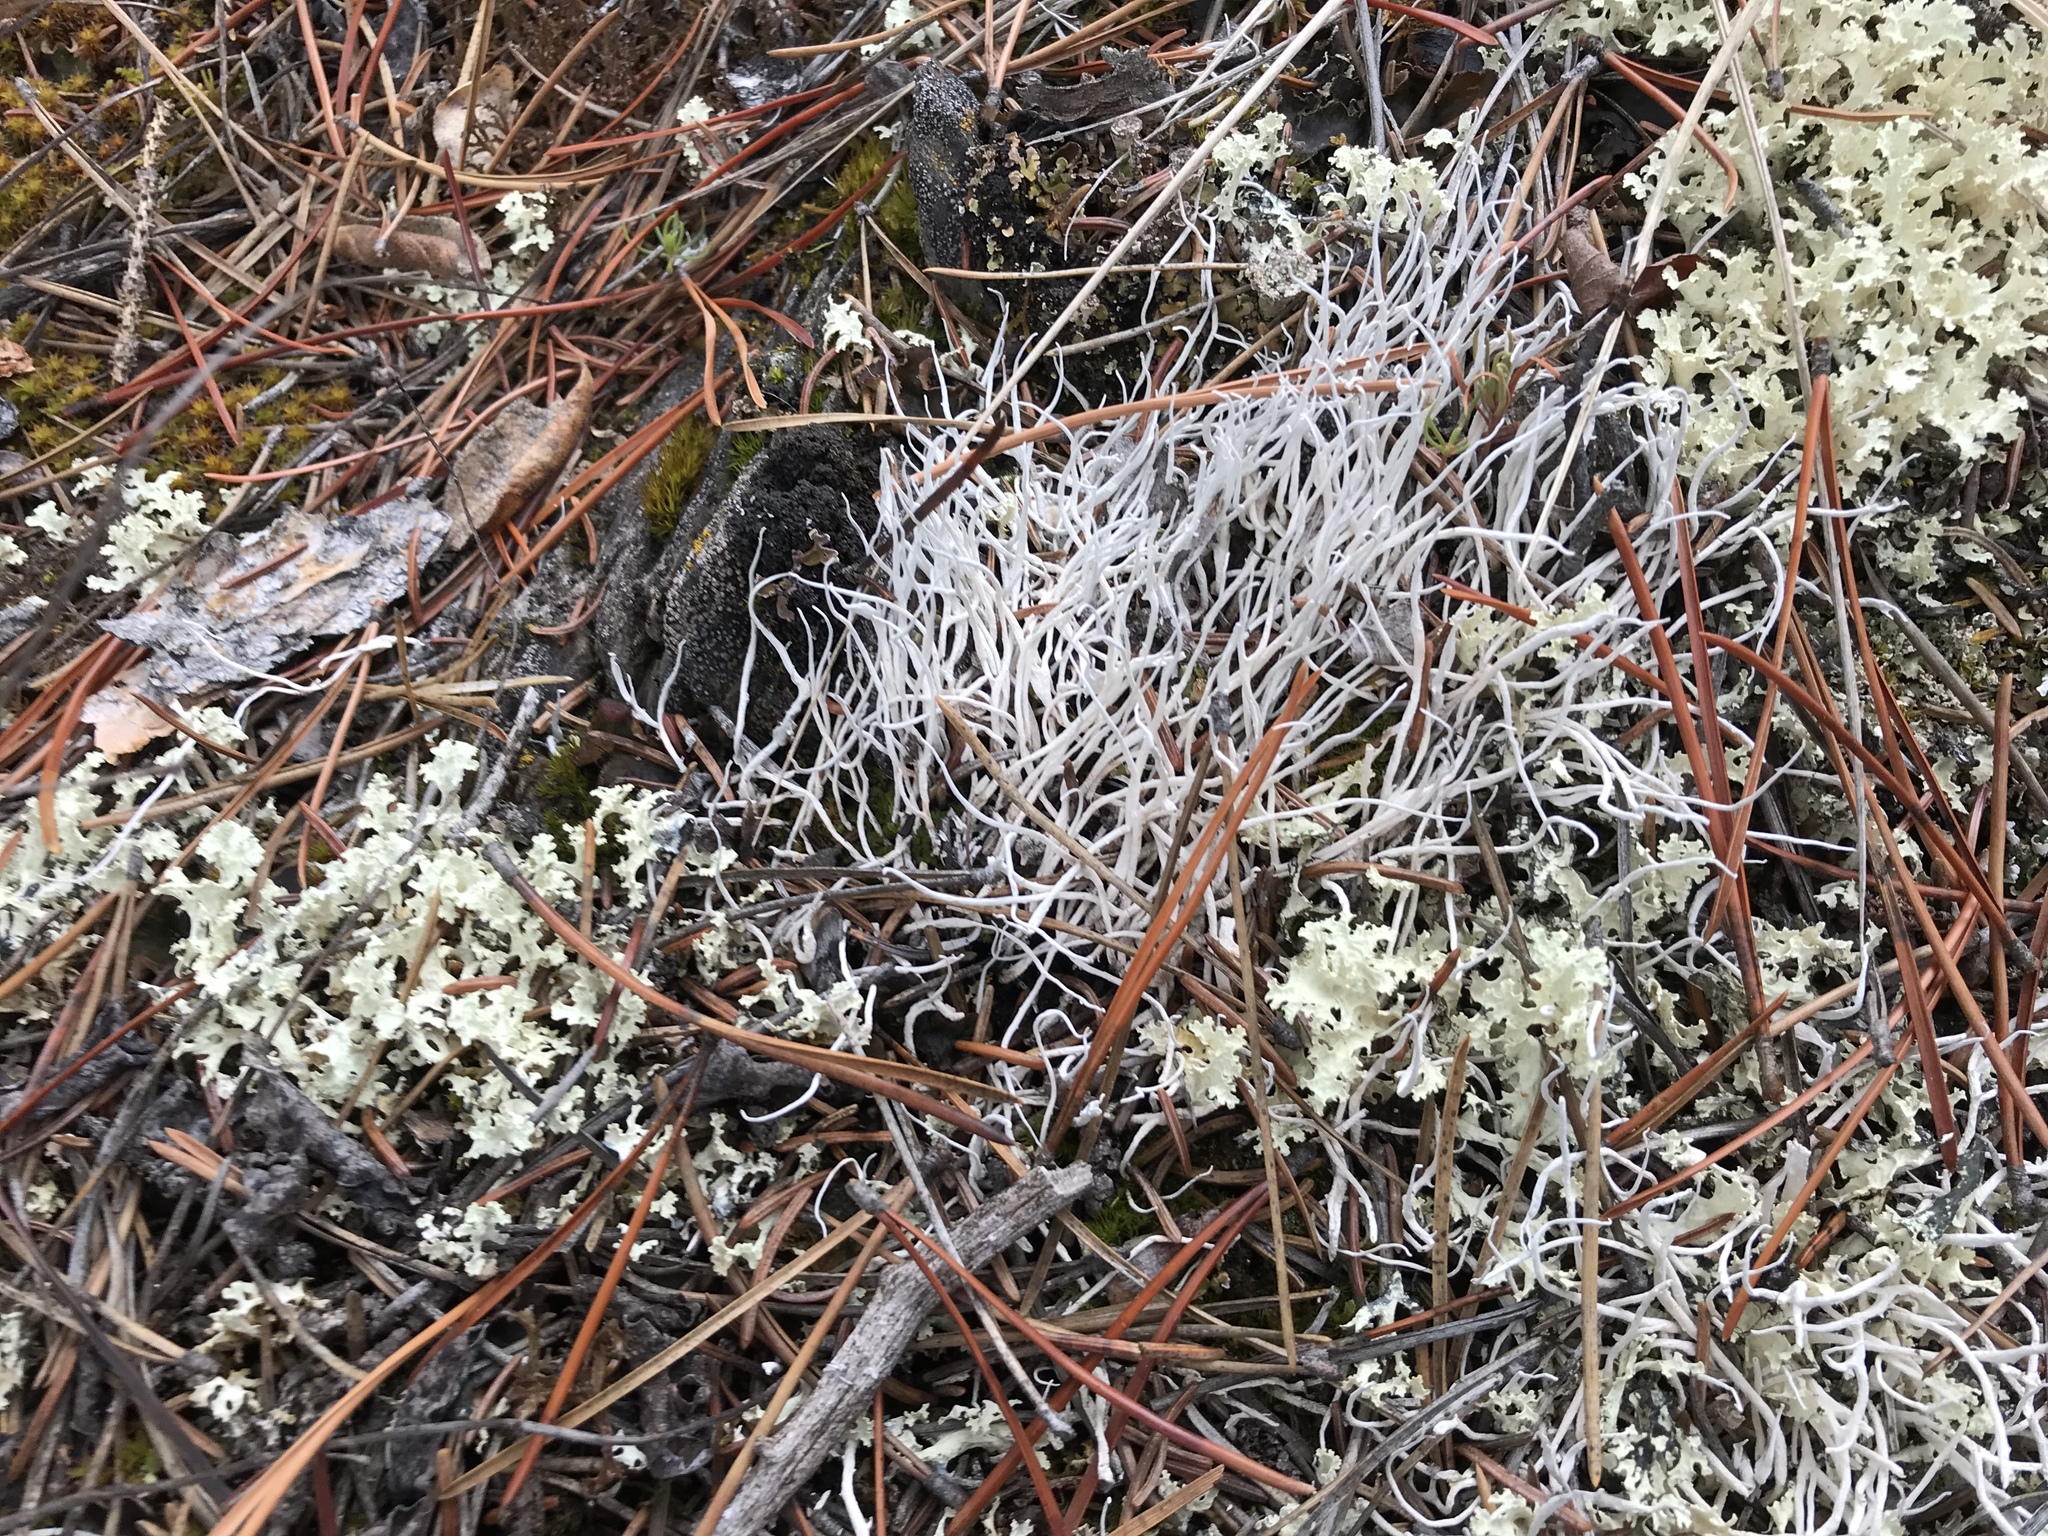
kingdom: Fungi
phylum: Ascomycota
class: Lecanoromycetes
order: Pertusariales
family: Icmadophilaceae
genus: Thamnolia
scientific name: Thamnolia vermicularis
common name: Whiteworm lichen
